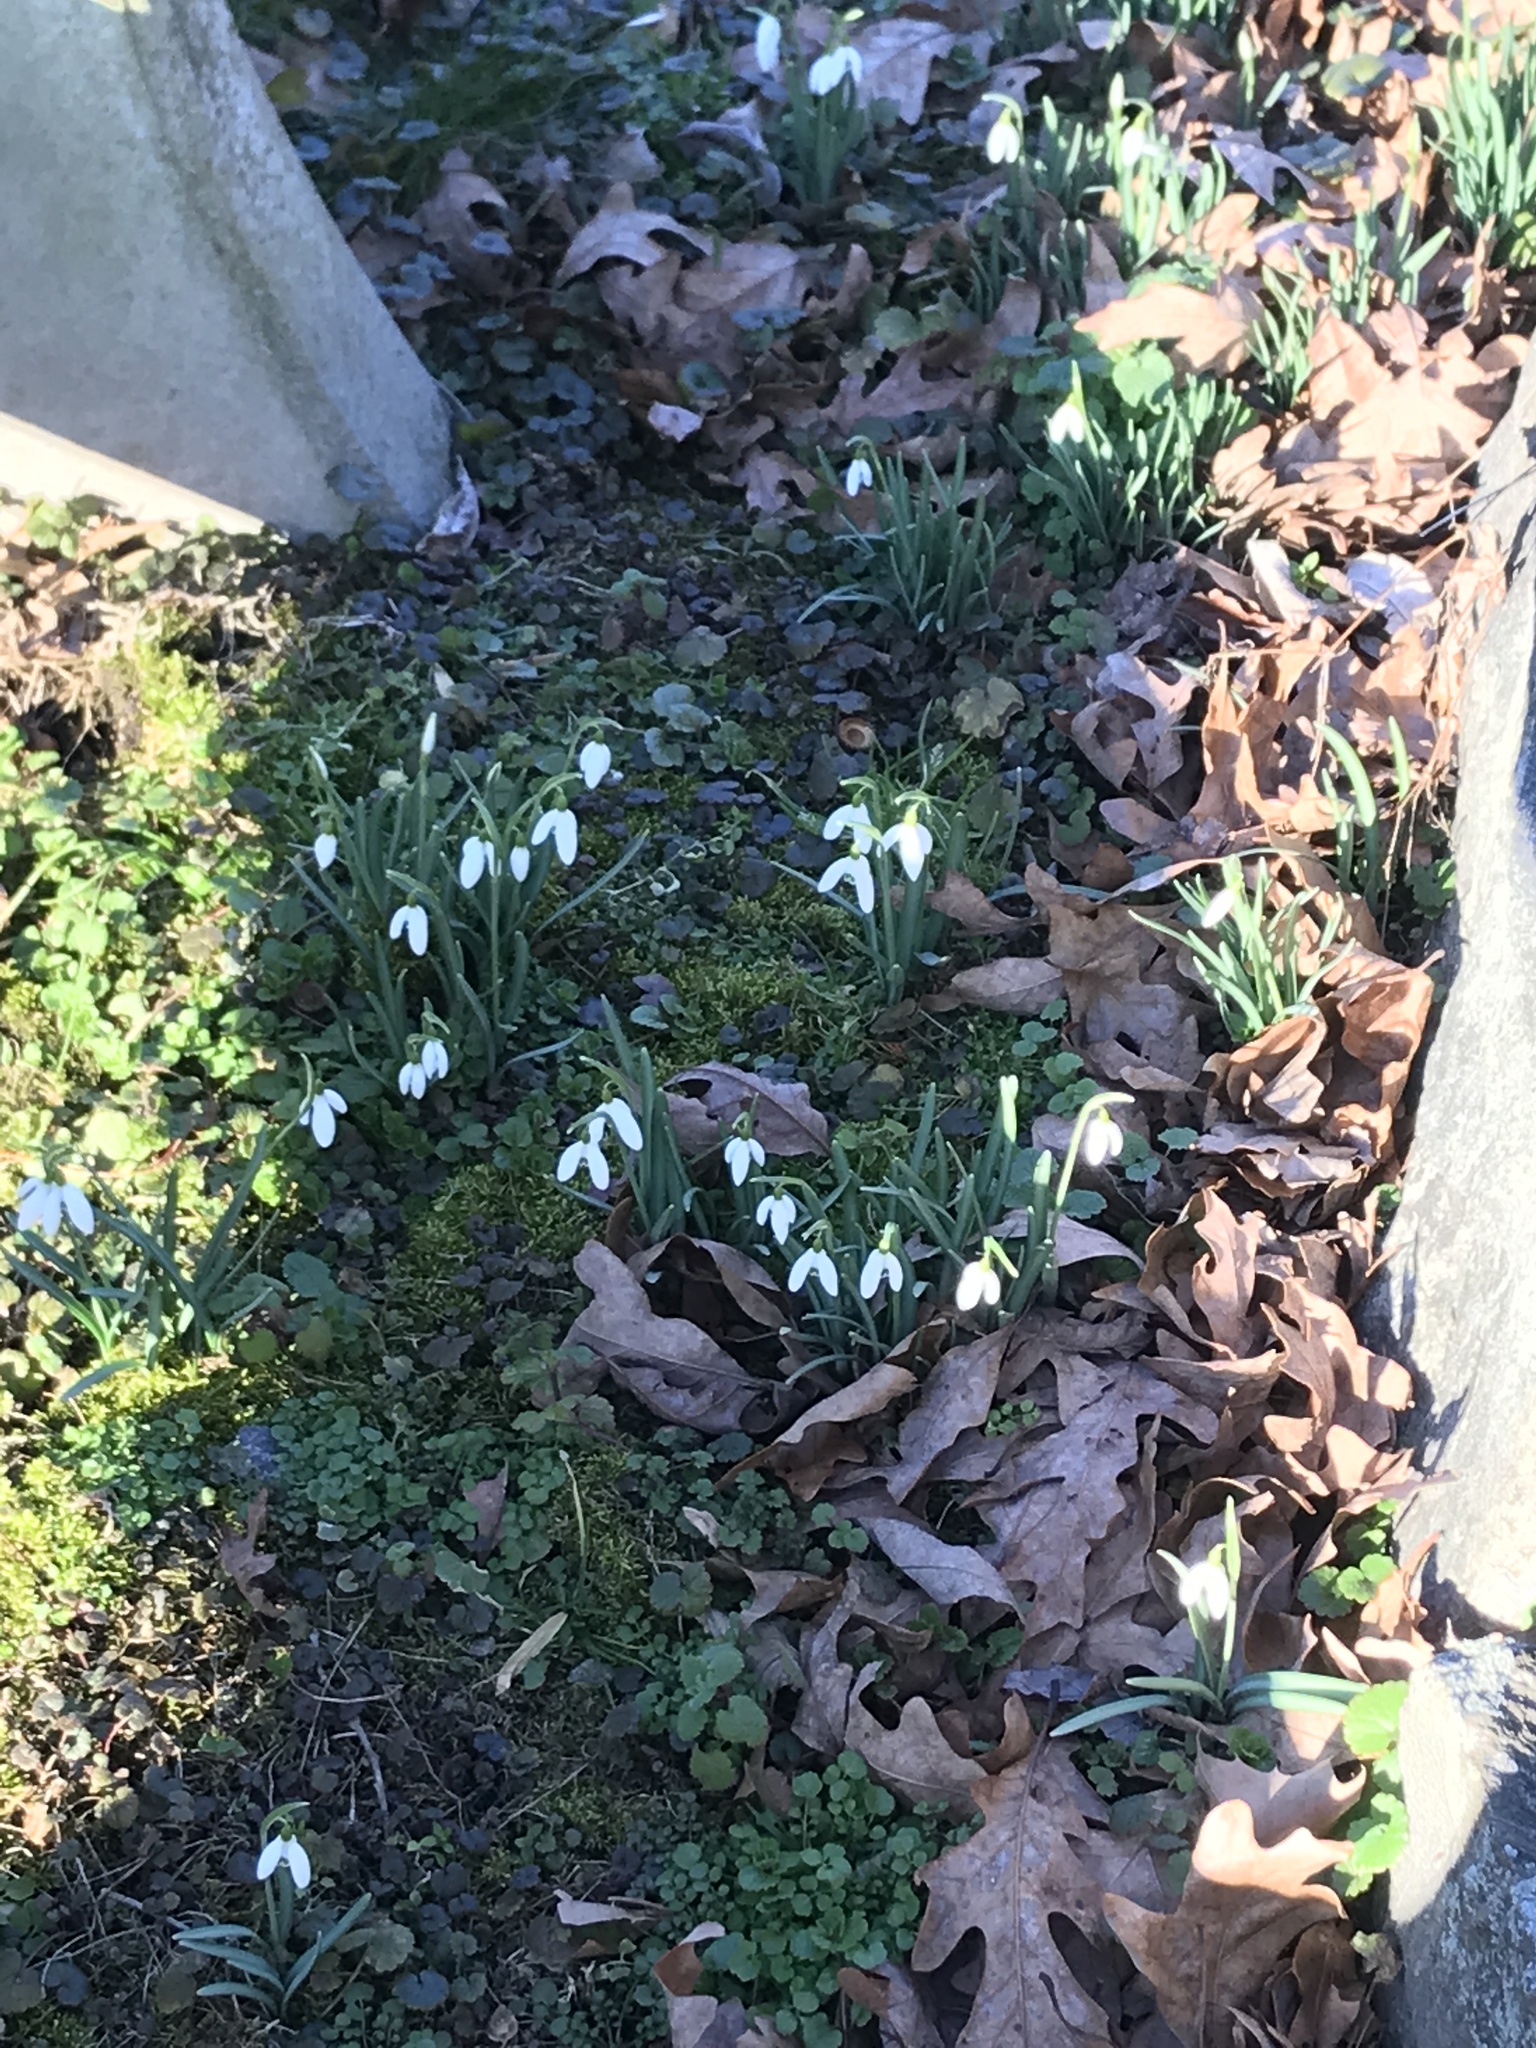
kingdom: Plantae
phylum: Tracheophyta
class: Liliopsida
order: Asparagales
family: Amaryllidaceae
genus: Galanthus
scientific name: Galanthus nivalis
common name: Snowdrop
